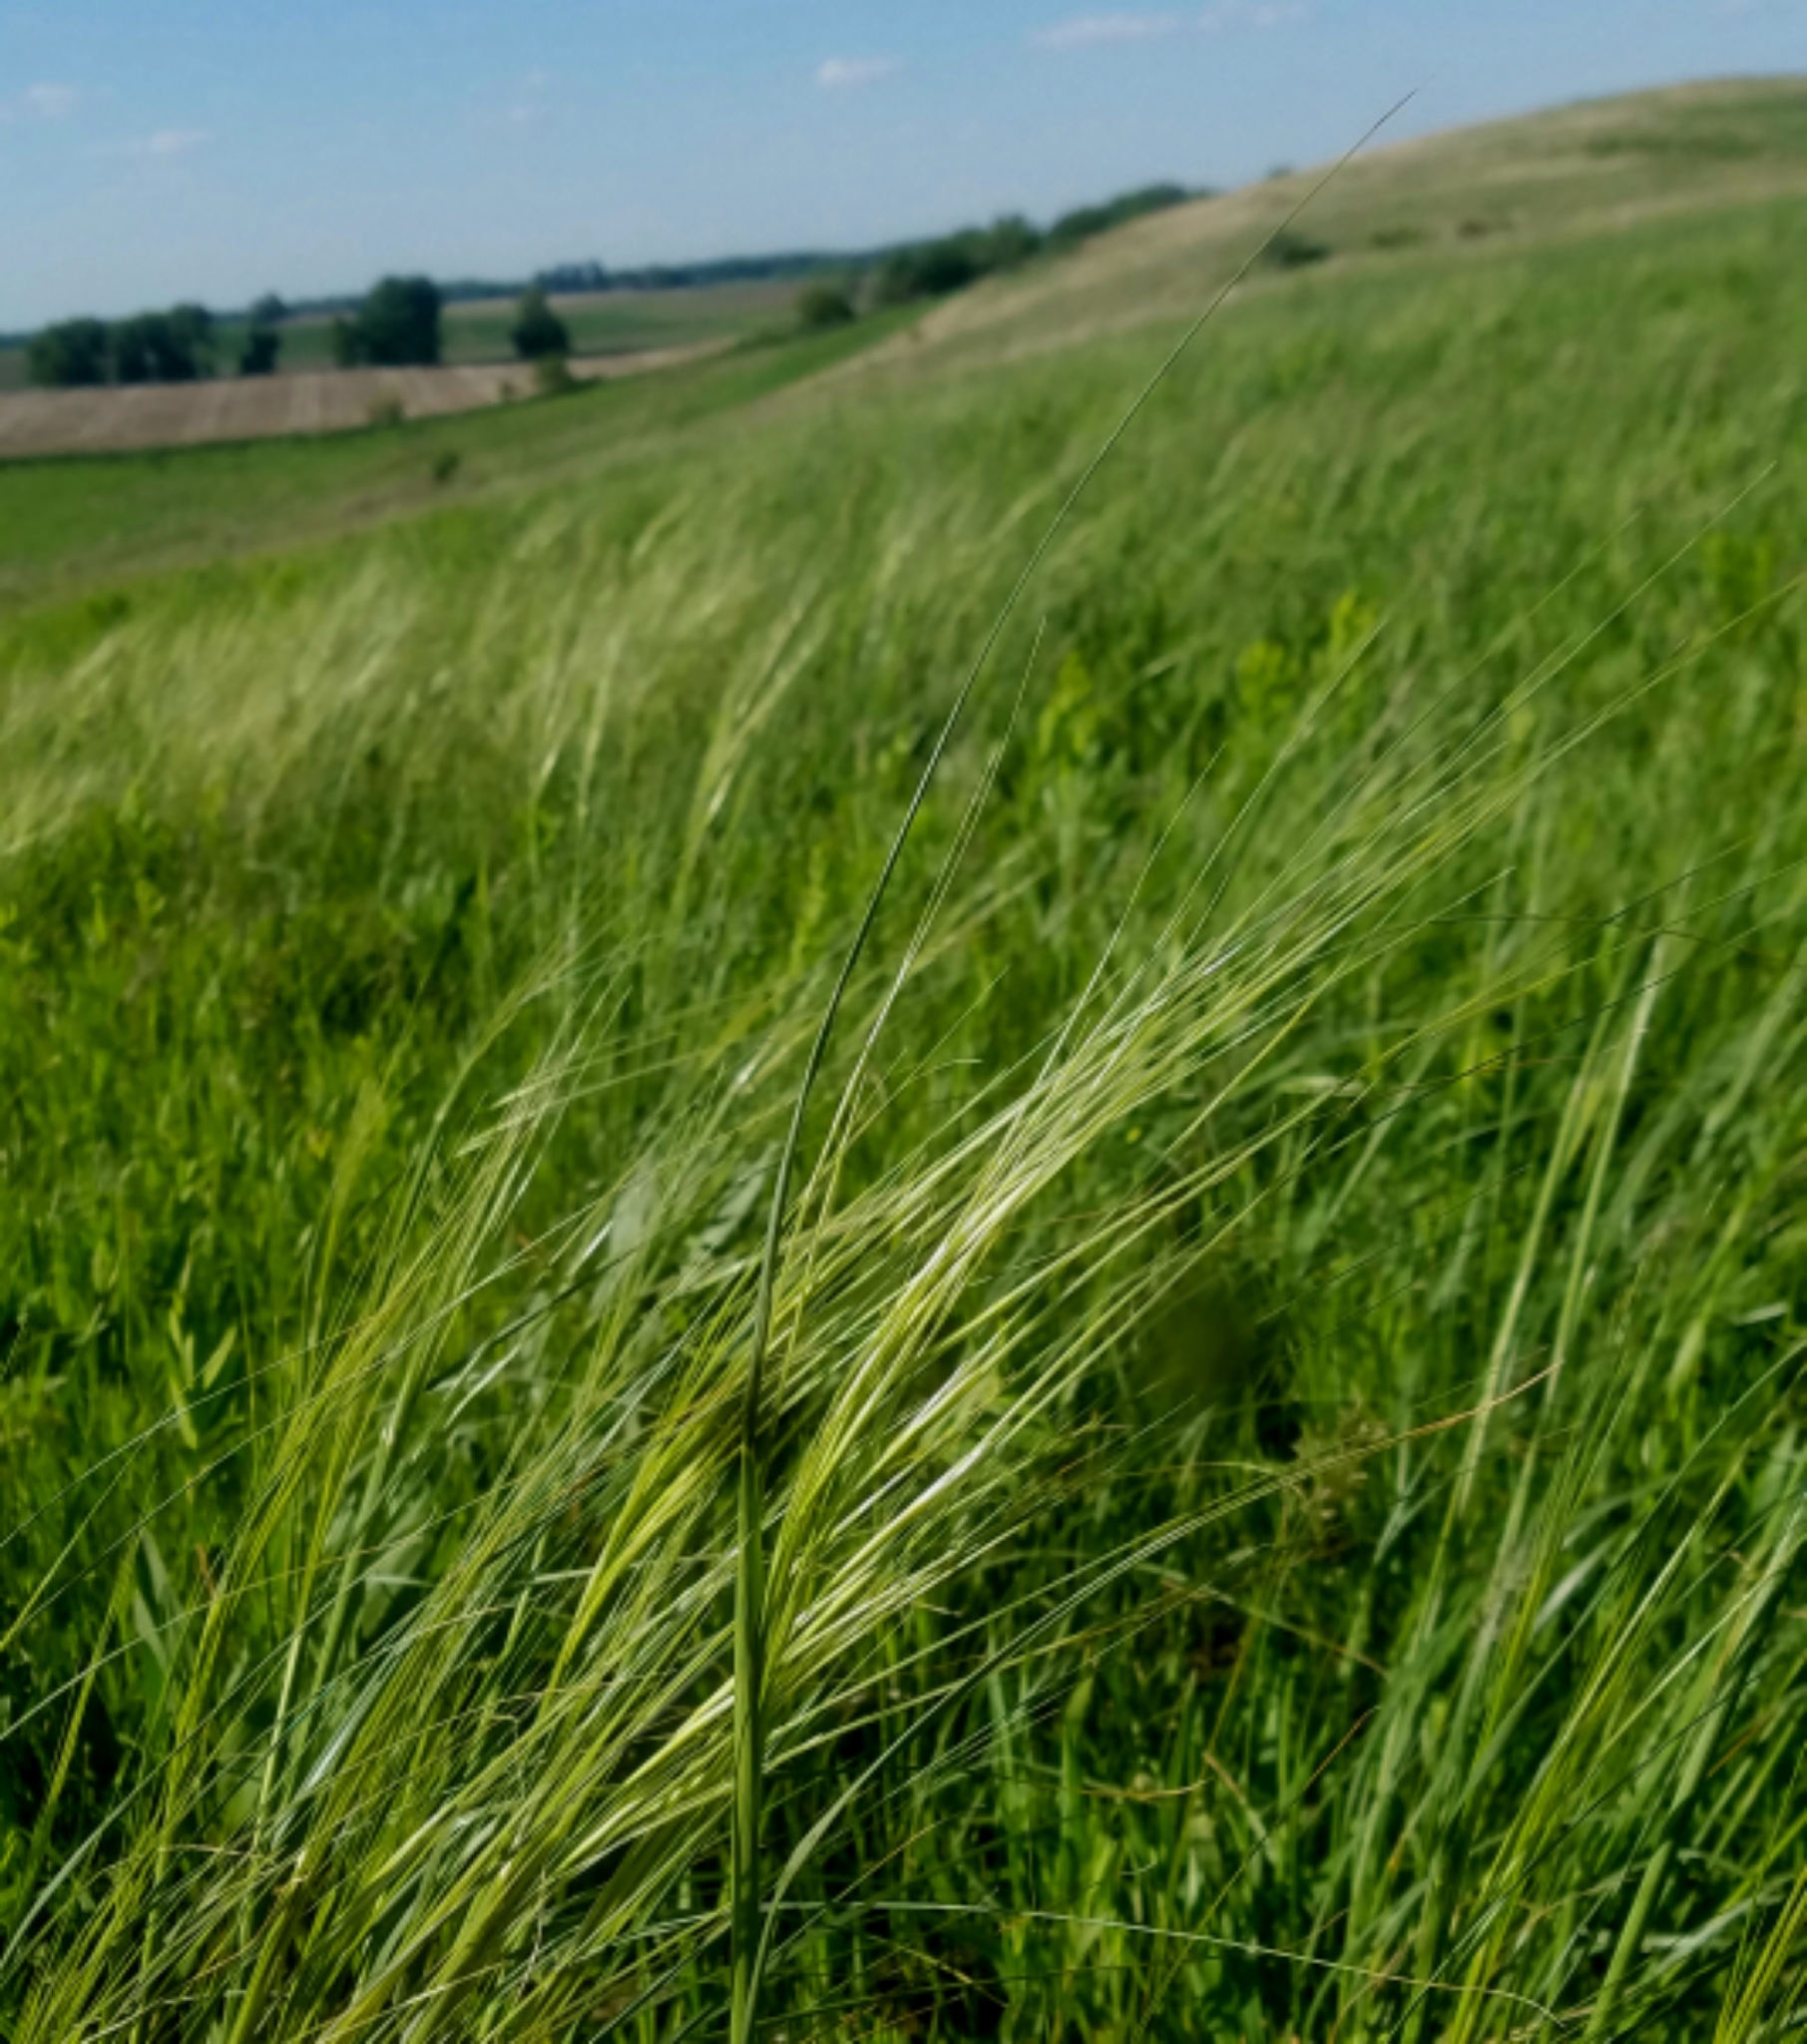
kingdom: Plantae
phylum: Tracheophyta
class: Liliopsida
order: Poales
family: Poaceae
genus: Hesperostipa
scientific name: Hesperostipa spartea
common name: Porcupine grass
